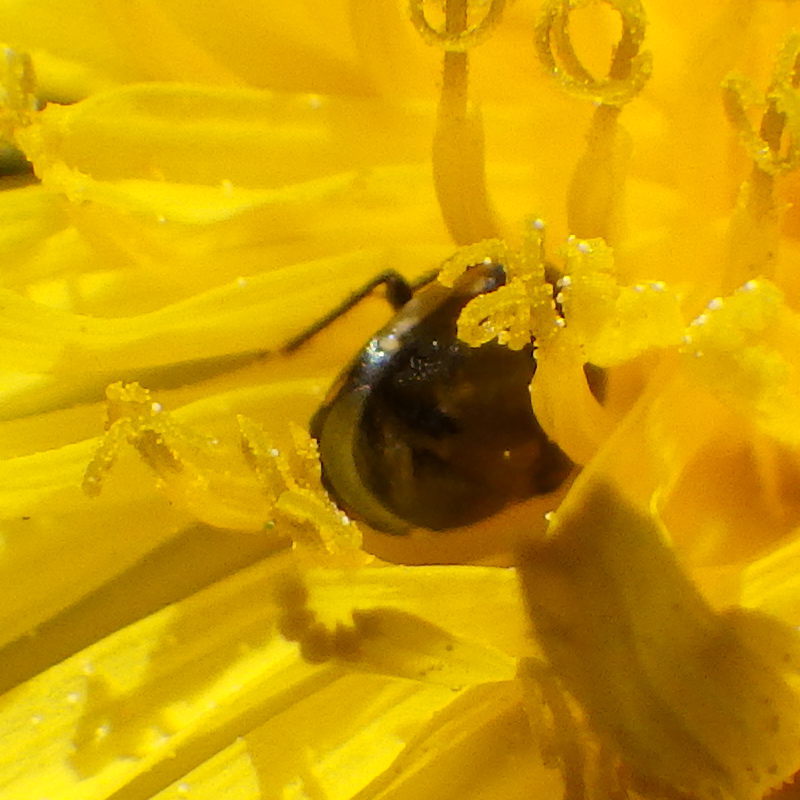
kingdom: Animalia
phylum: Arthropoda
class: Insecta
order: Hemiptera
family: Thyreocoridae
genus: Corimelaena
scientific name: Corimelaena pulicaria
